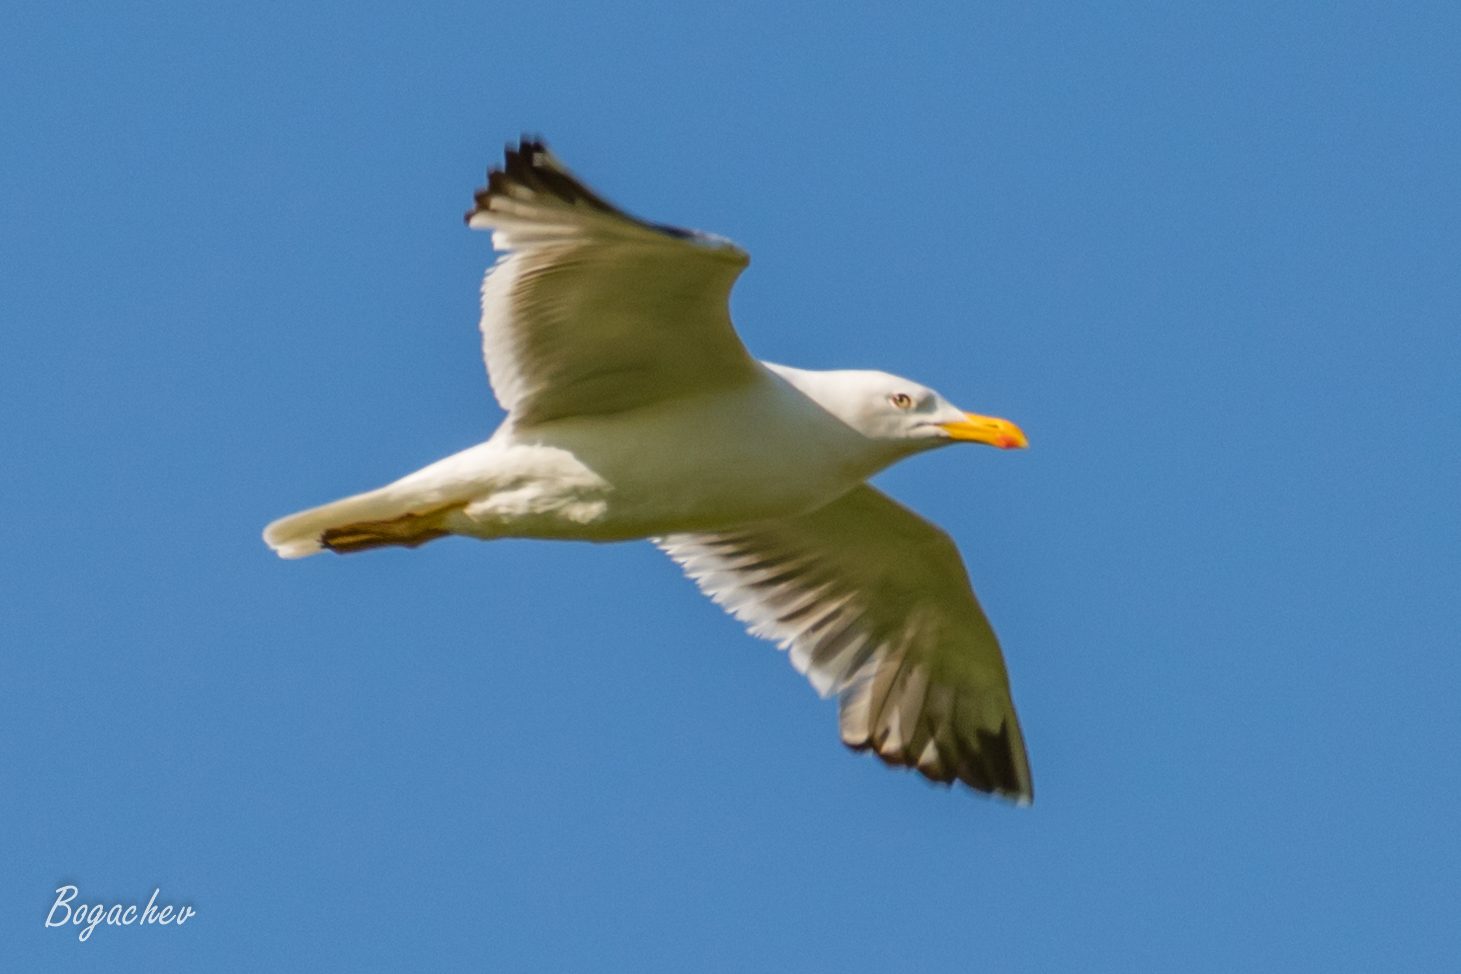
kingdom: Animalia
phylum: Chordata
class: Aves
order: Charadriiformes
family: Laridae
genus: Larus
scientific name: Larus fuscus
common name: Lesser black-backed gull
